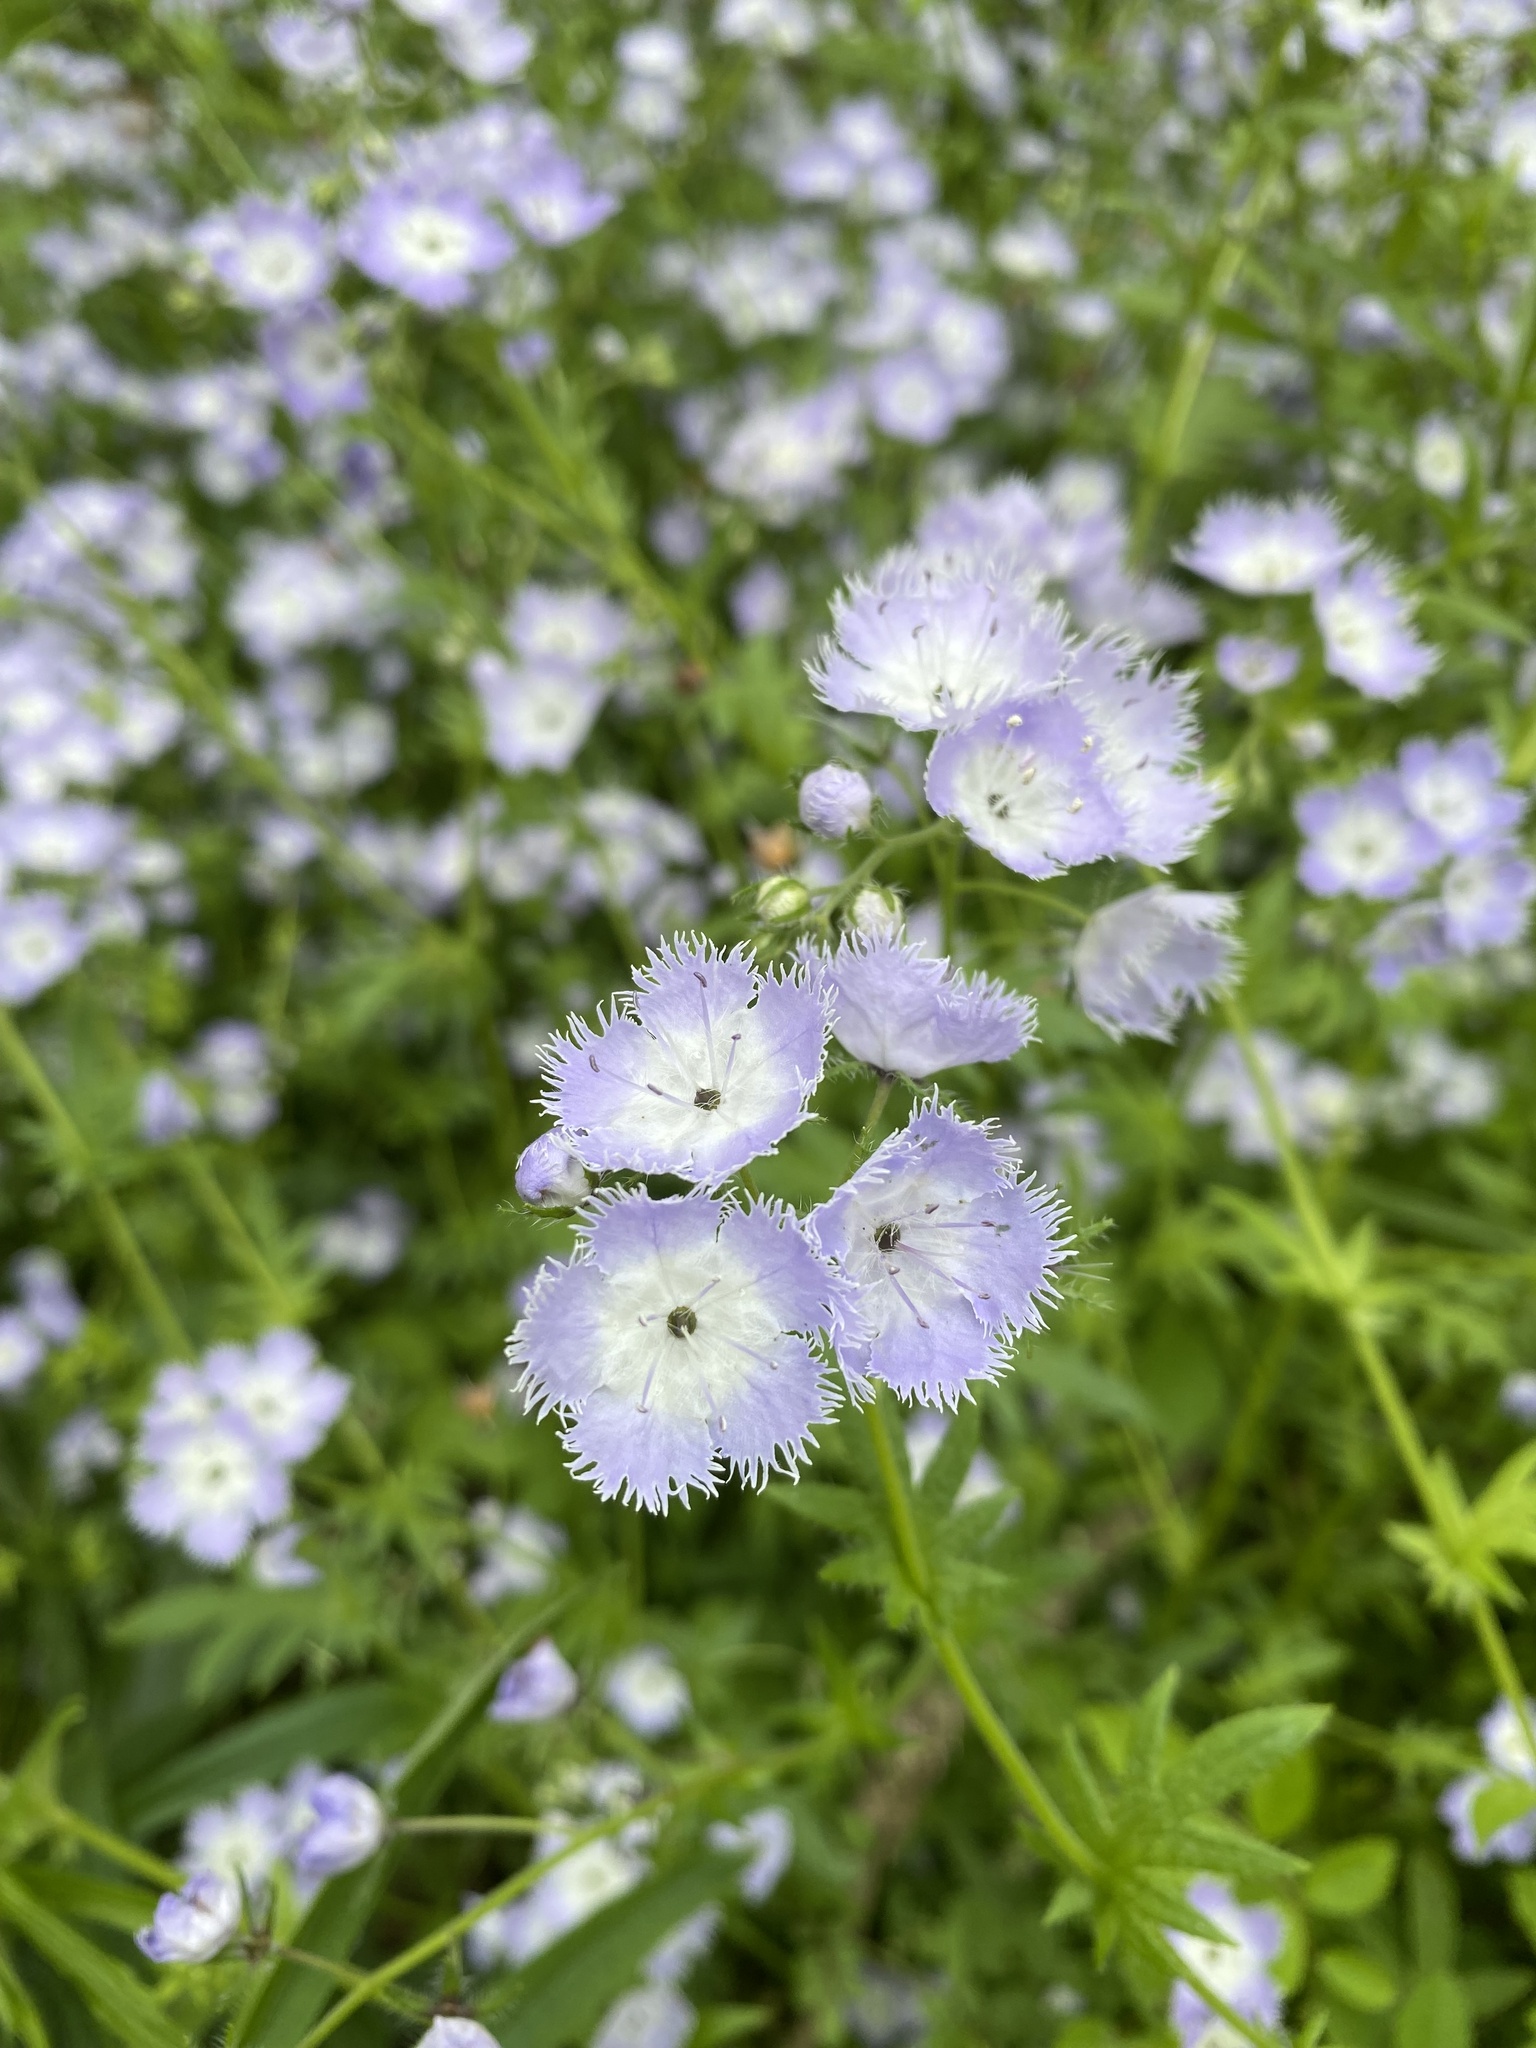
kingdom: Plantae
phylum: Tracheophyta
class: Magnoliopsida
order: Boraginales
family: Hydrophyllaceae
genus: Phacelia
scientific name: Phacelia purshii
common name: Miami-mist
